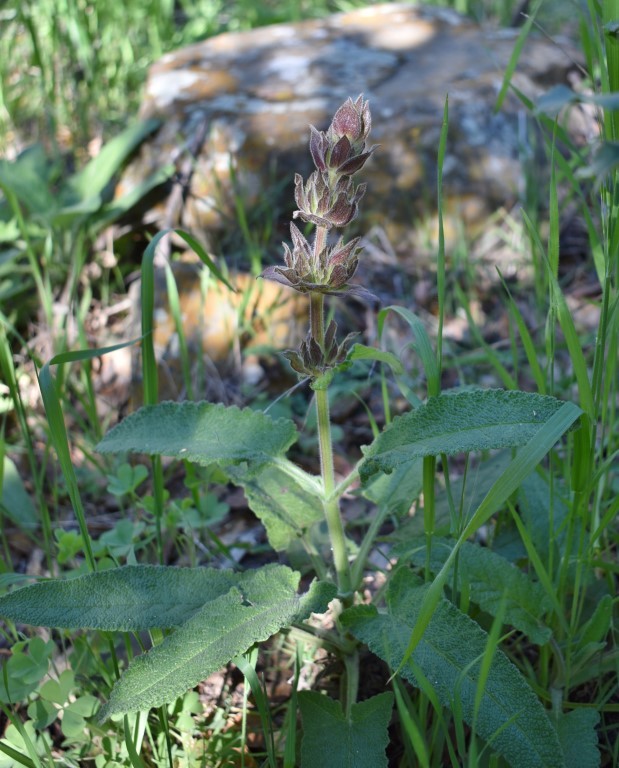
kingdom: Plantae
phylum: Tracheophyta
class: Magnoliopsida
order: Lamiales
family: Lamiaceae
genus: Salvia
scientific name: Salvia spathacea
